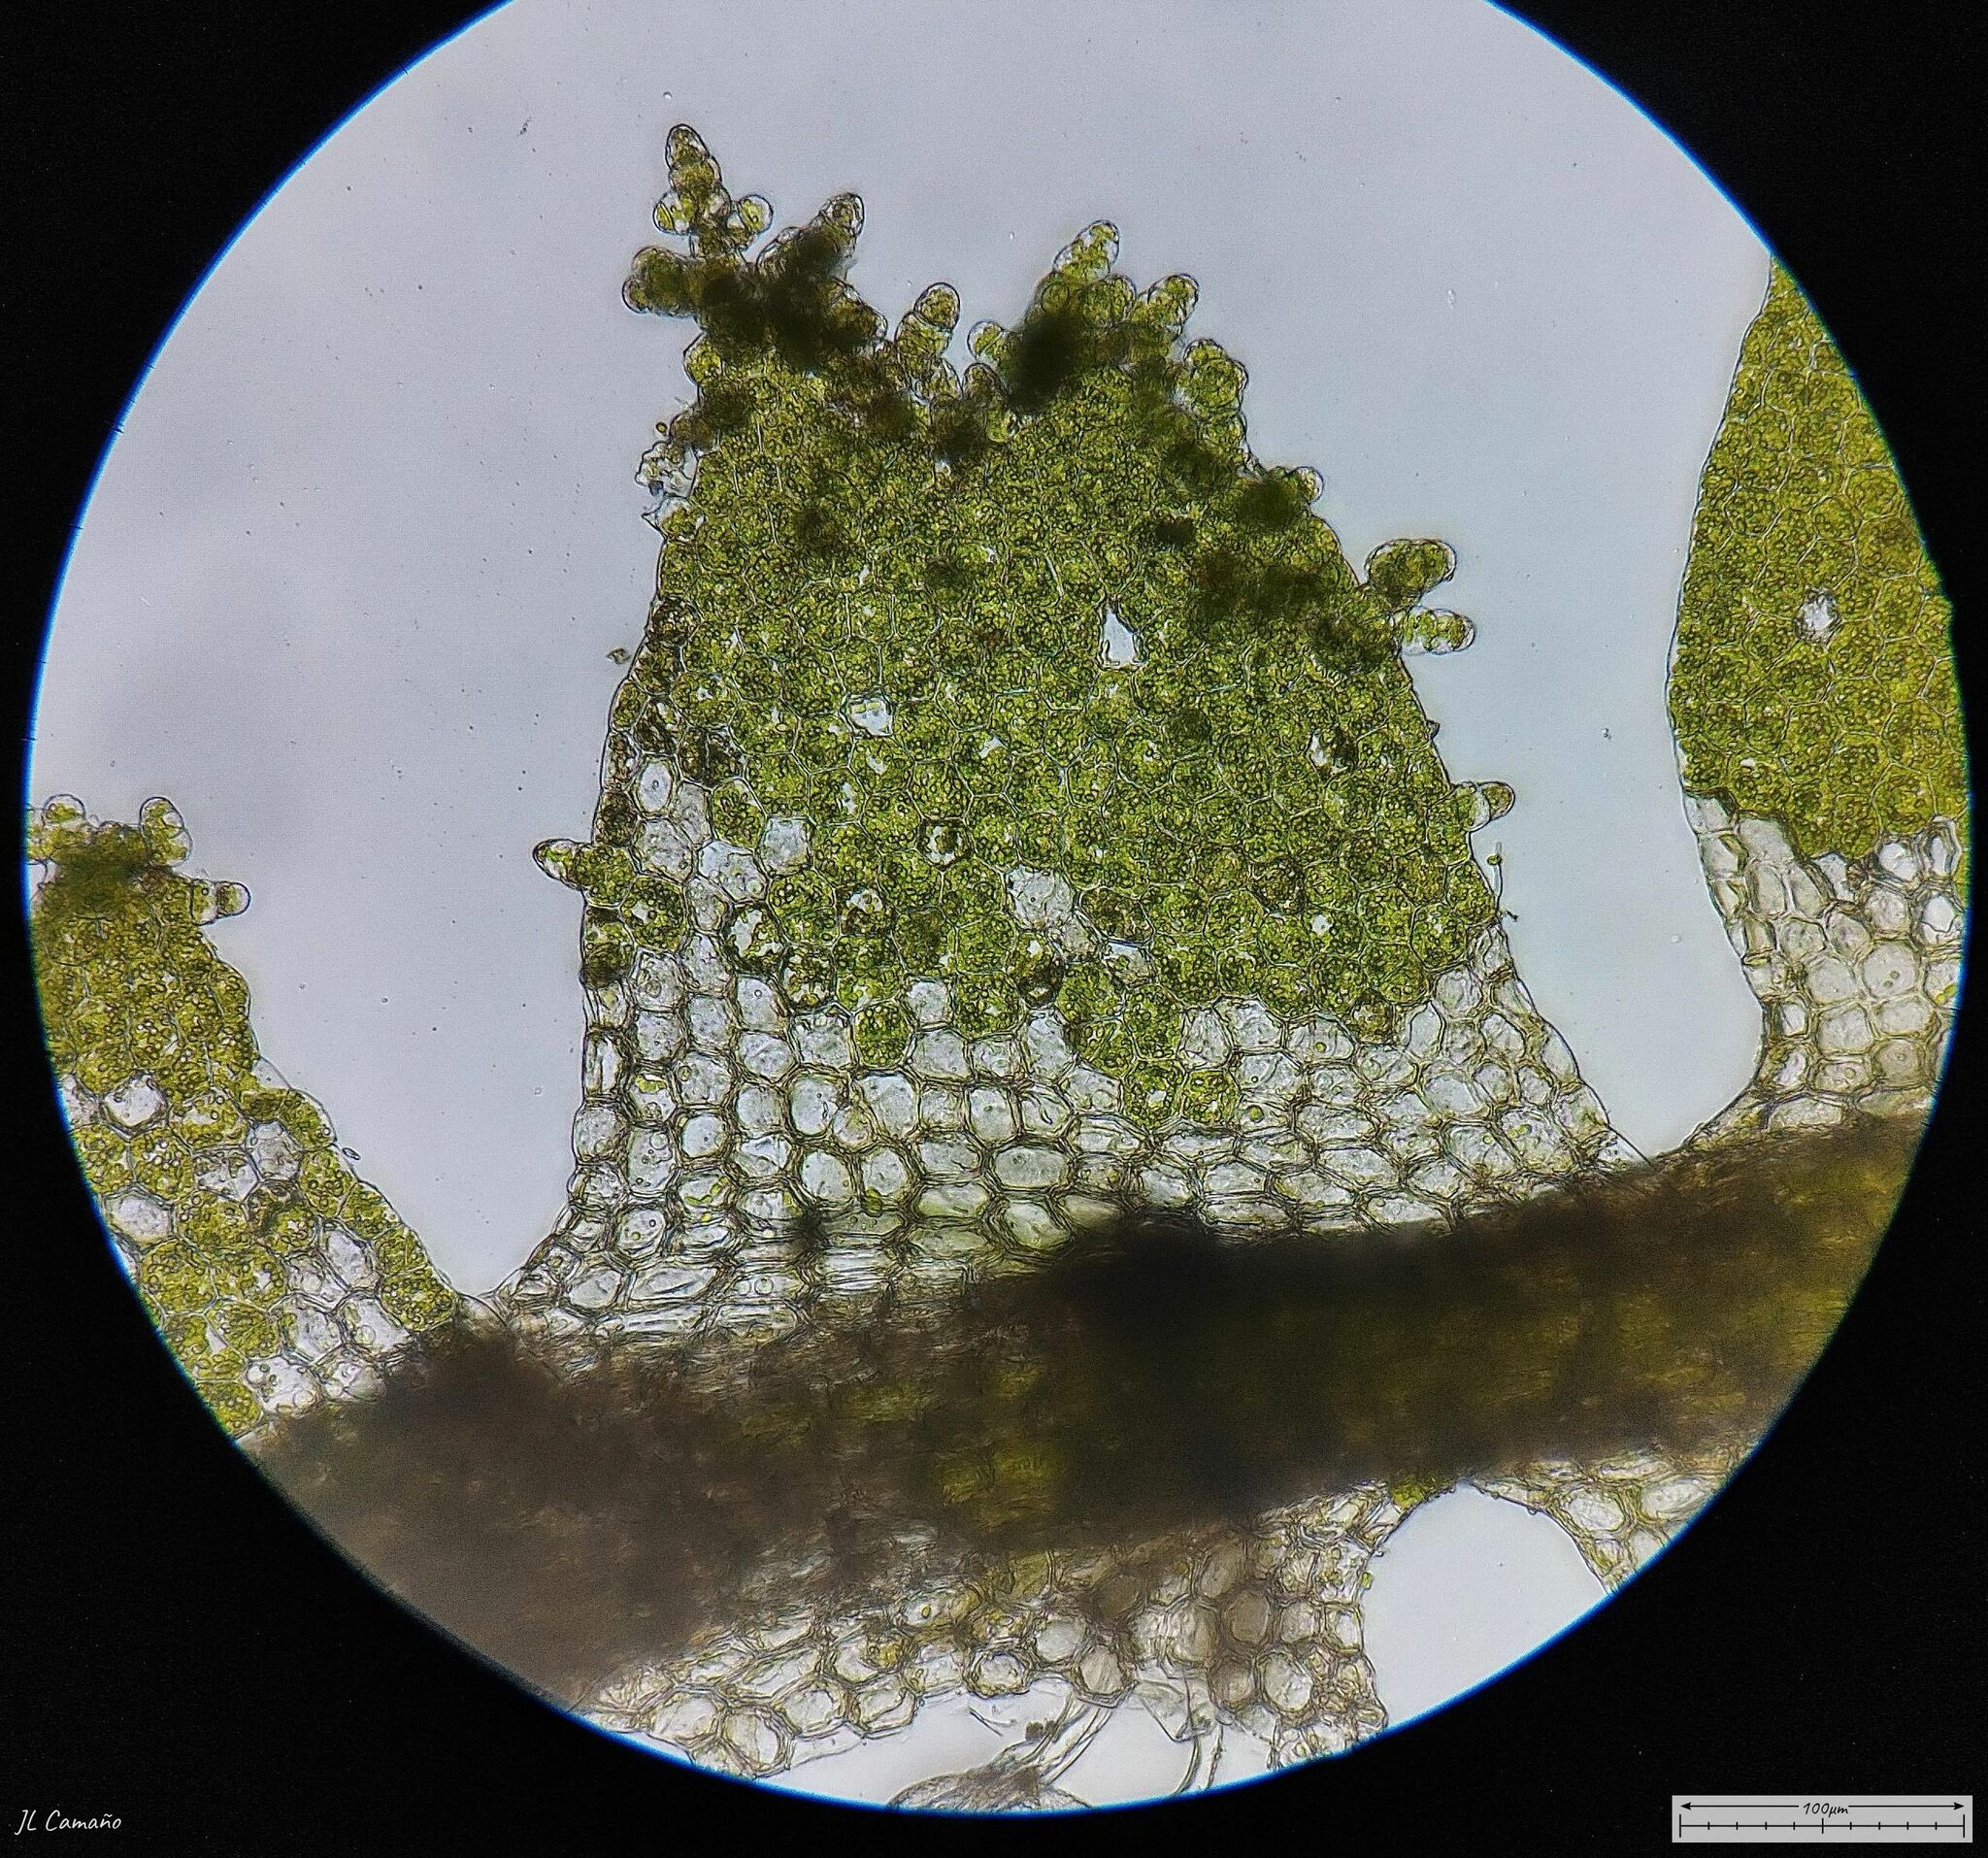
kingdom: Plantae
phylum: Marchantiophyta
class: Jungermanniopsida
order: Jungermanniales
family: Lophocoleaceae
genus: Lophocolea
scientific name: Lophocolea bidentata
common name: Bifid crestwort
